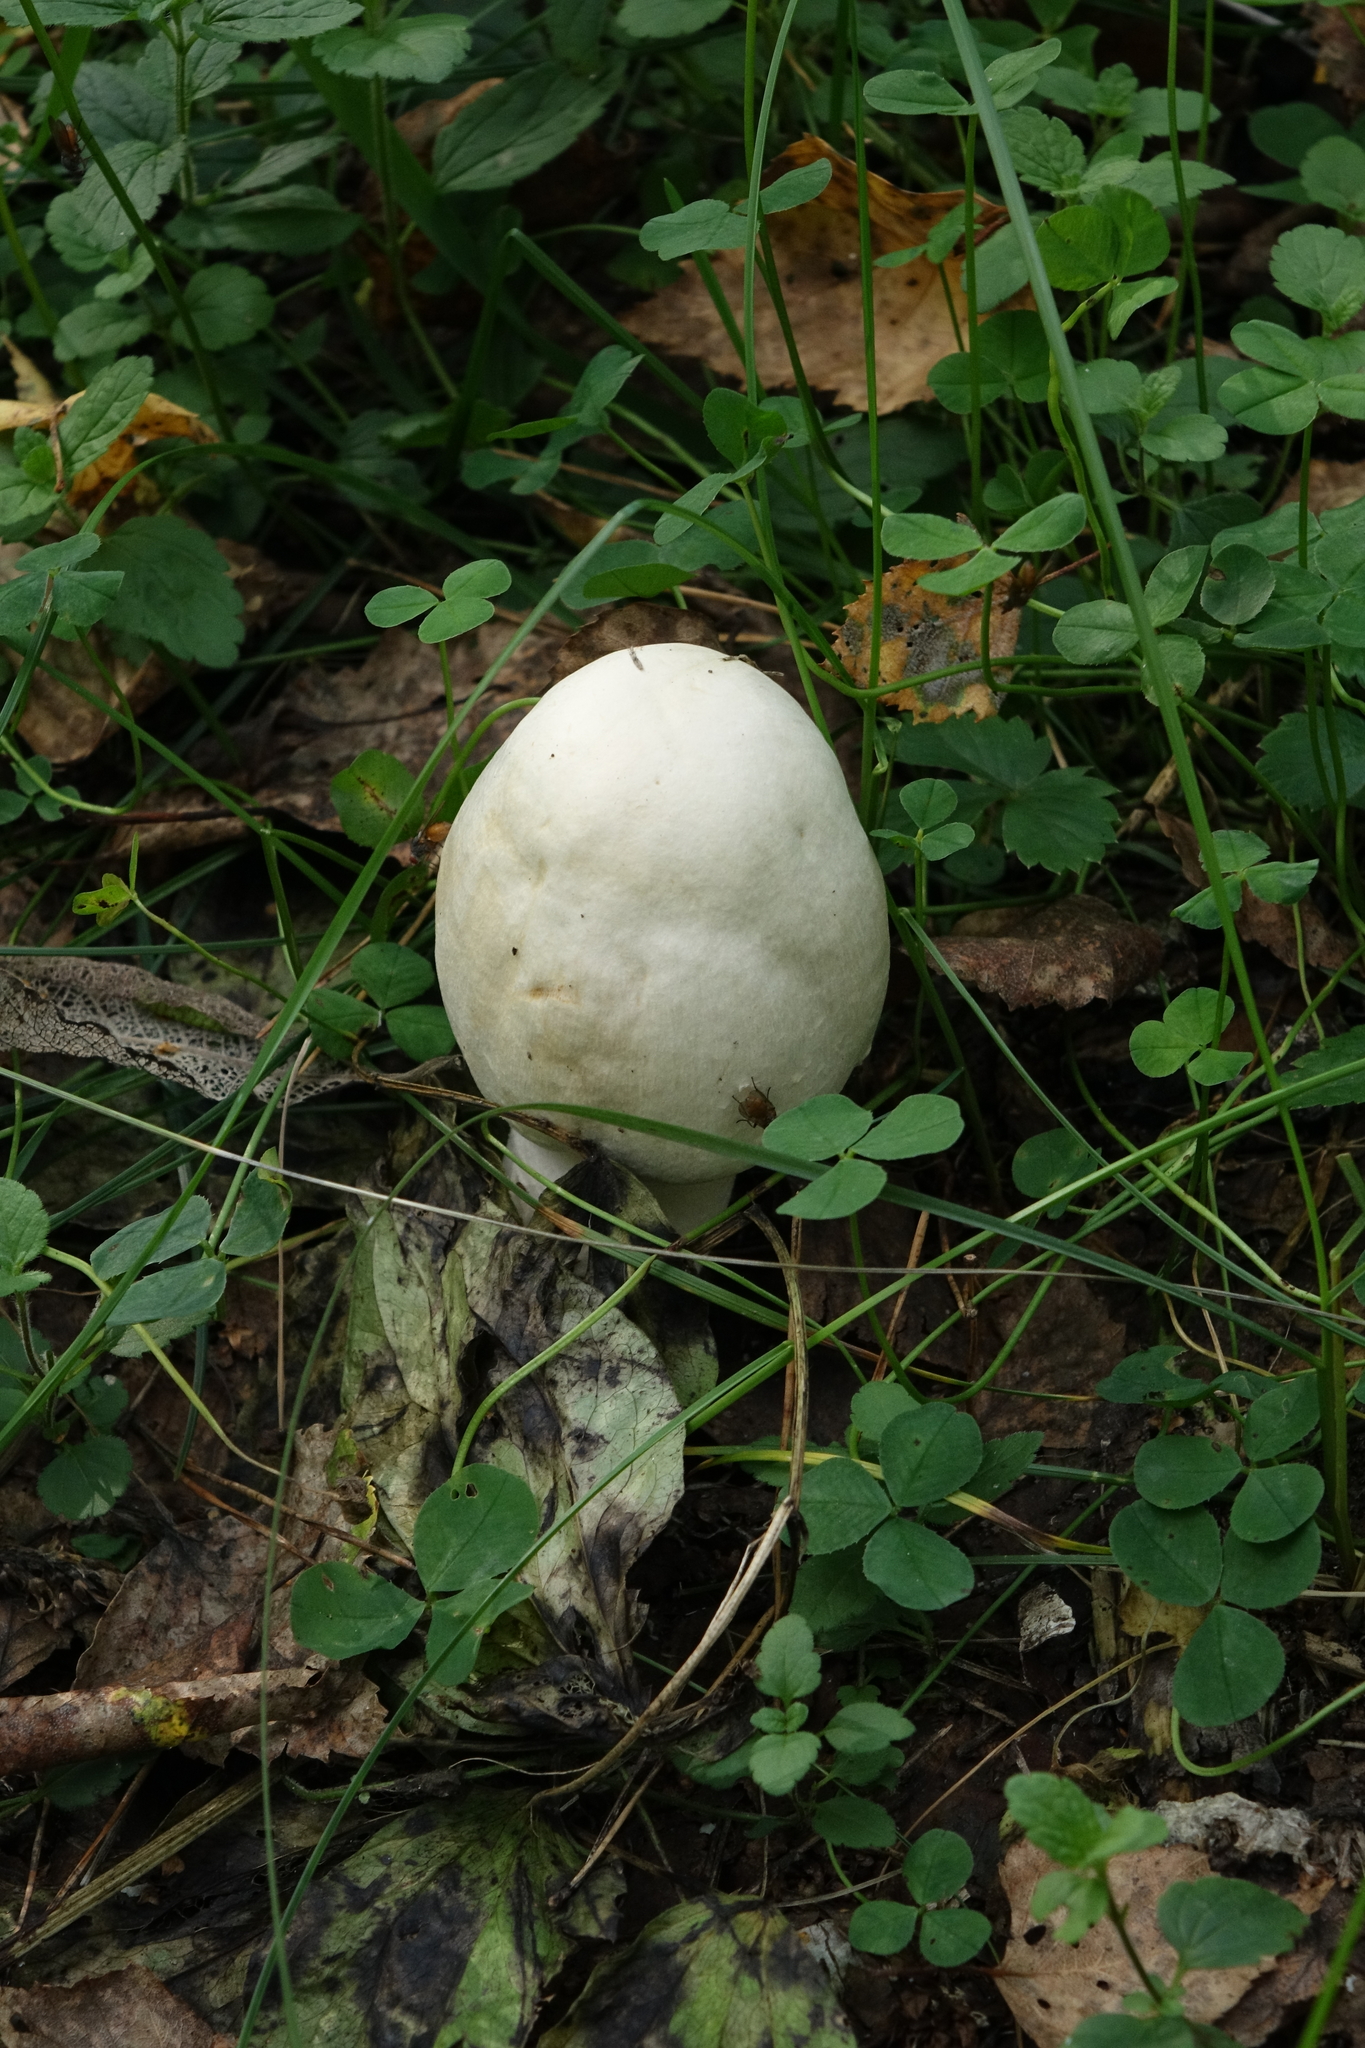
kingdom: Fungi
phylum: Basidiomycota
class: Agaricomycetes
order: Agaricales
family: Agaricaceae
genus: Agaricus
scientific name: Agaricus sylvicola
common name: Wood mushroom
